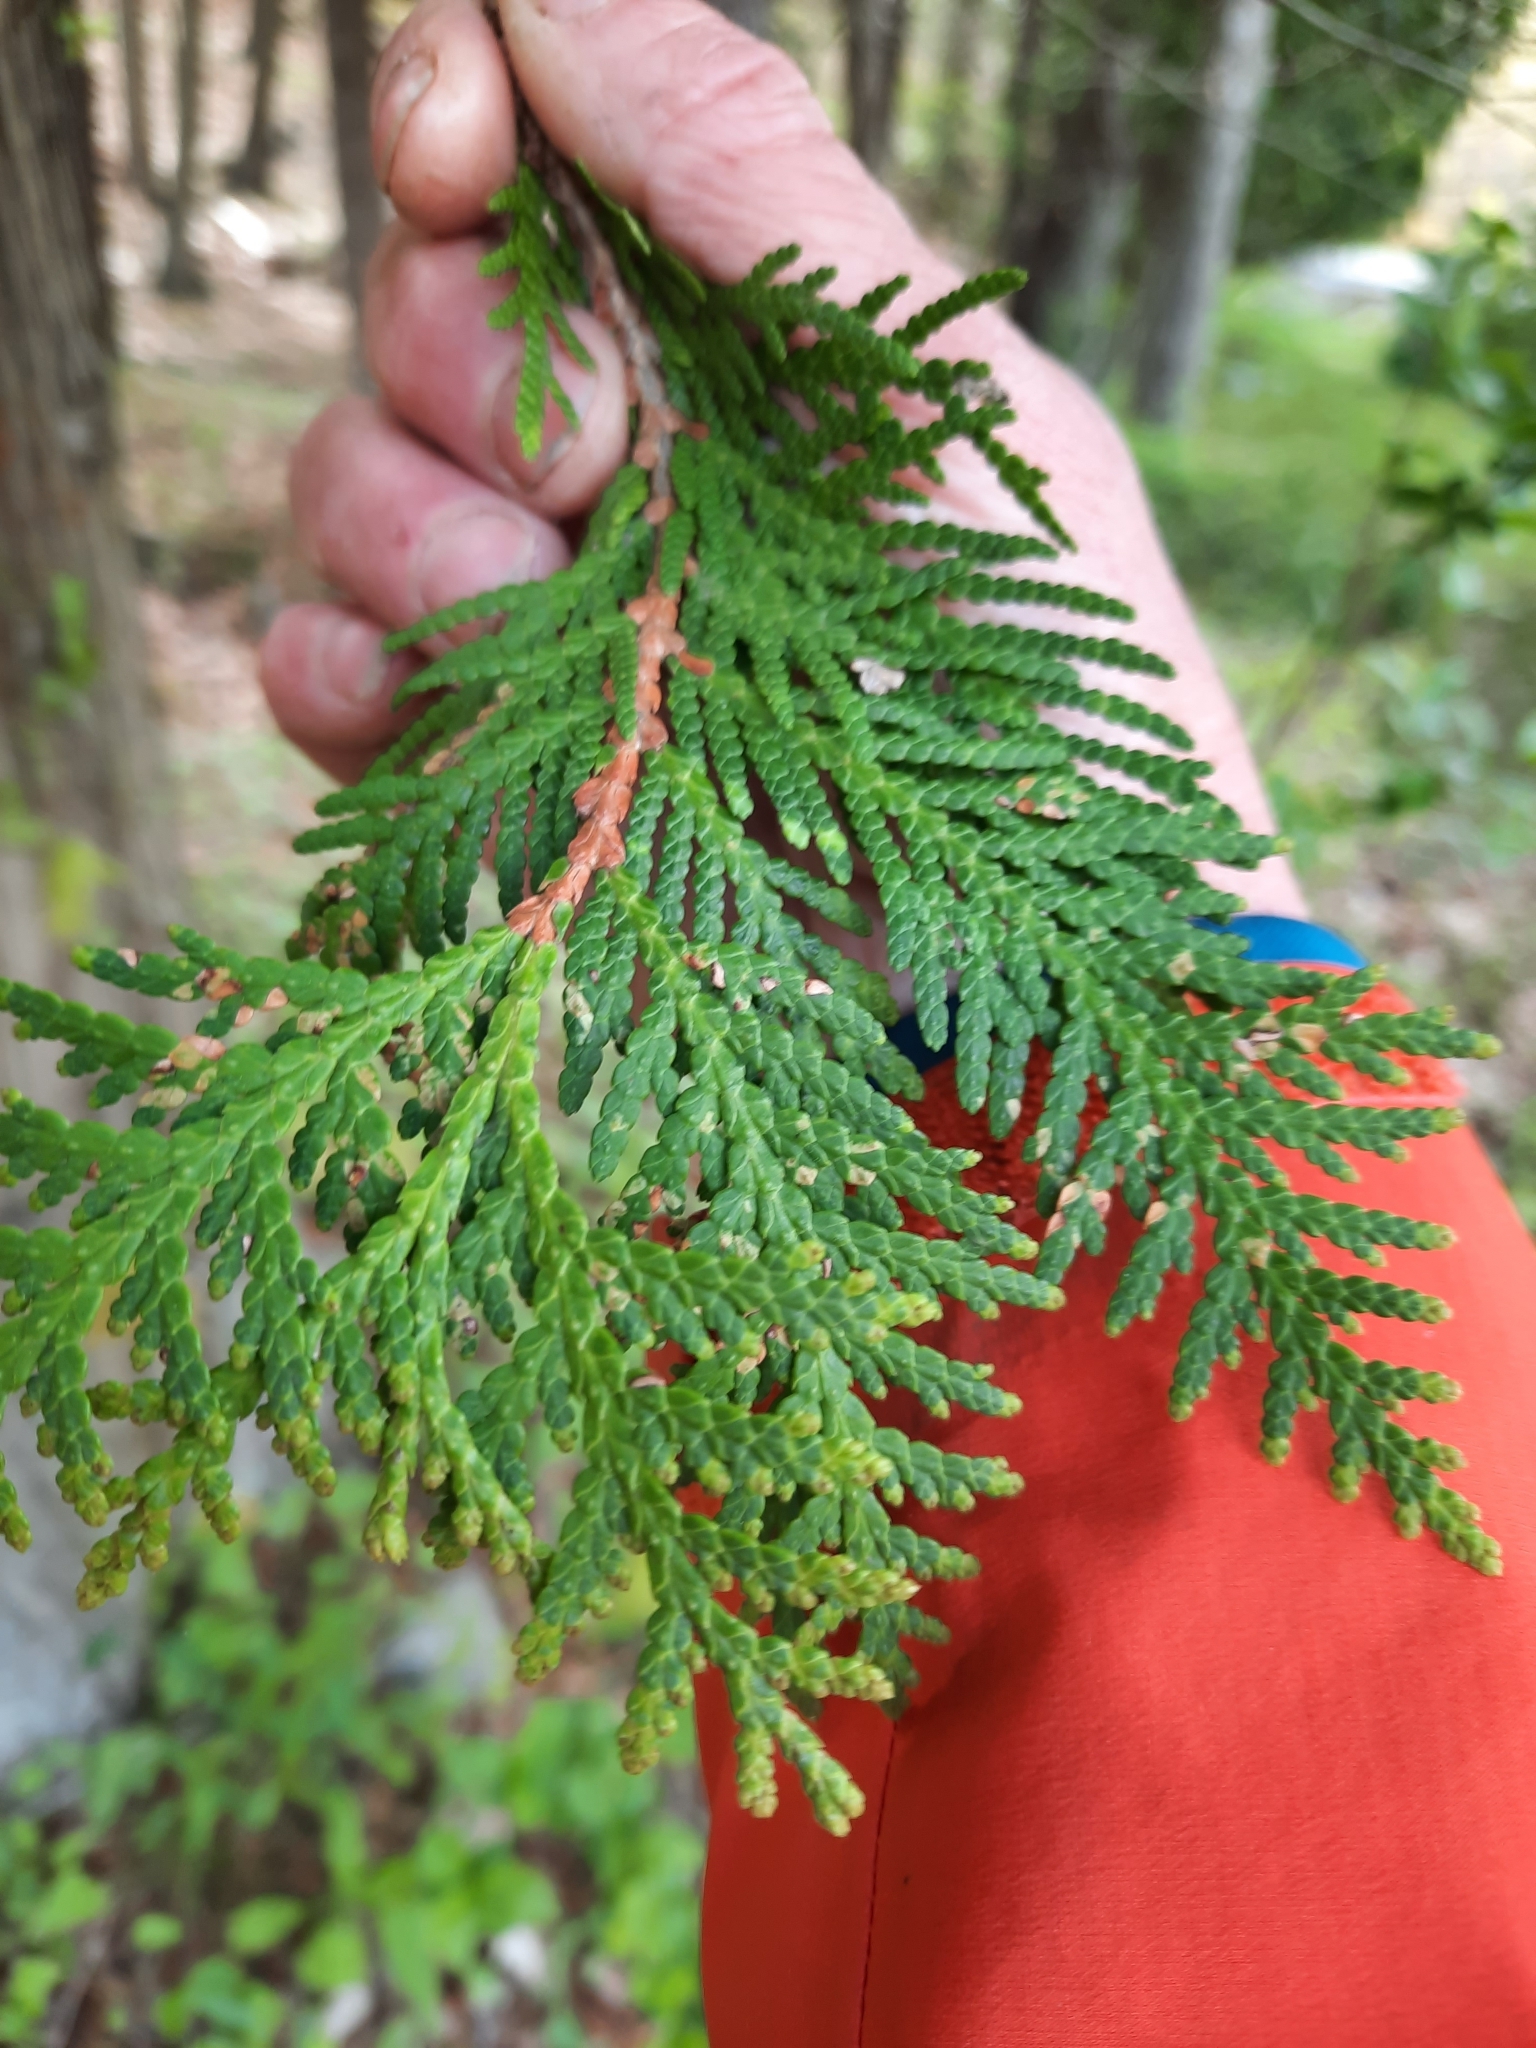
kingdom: Plantae
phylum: Tracheophyta
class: Pinopsida
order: Pinales
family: Cupressaceae
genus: Thuja
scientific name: Thuja occidentalis
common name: Northern white-cedar
